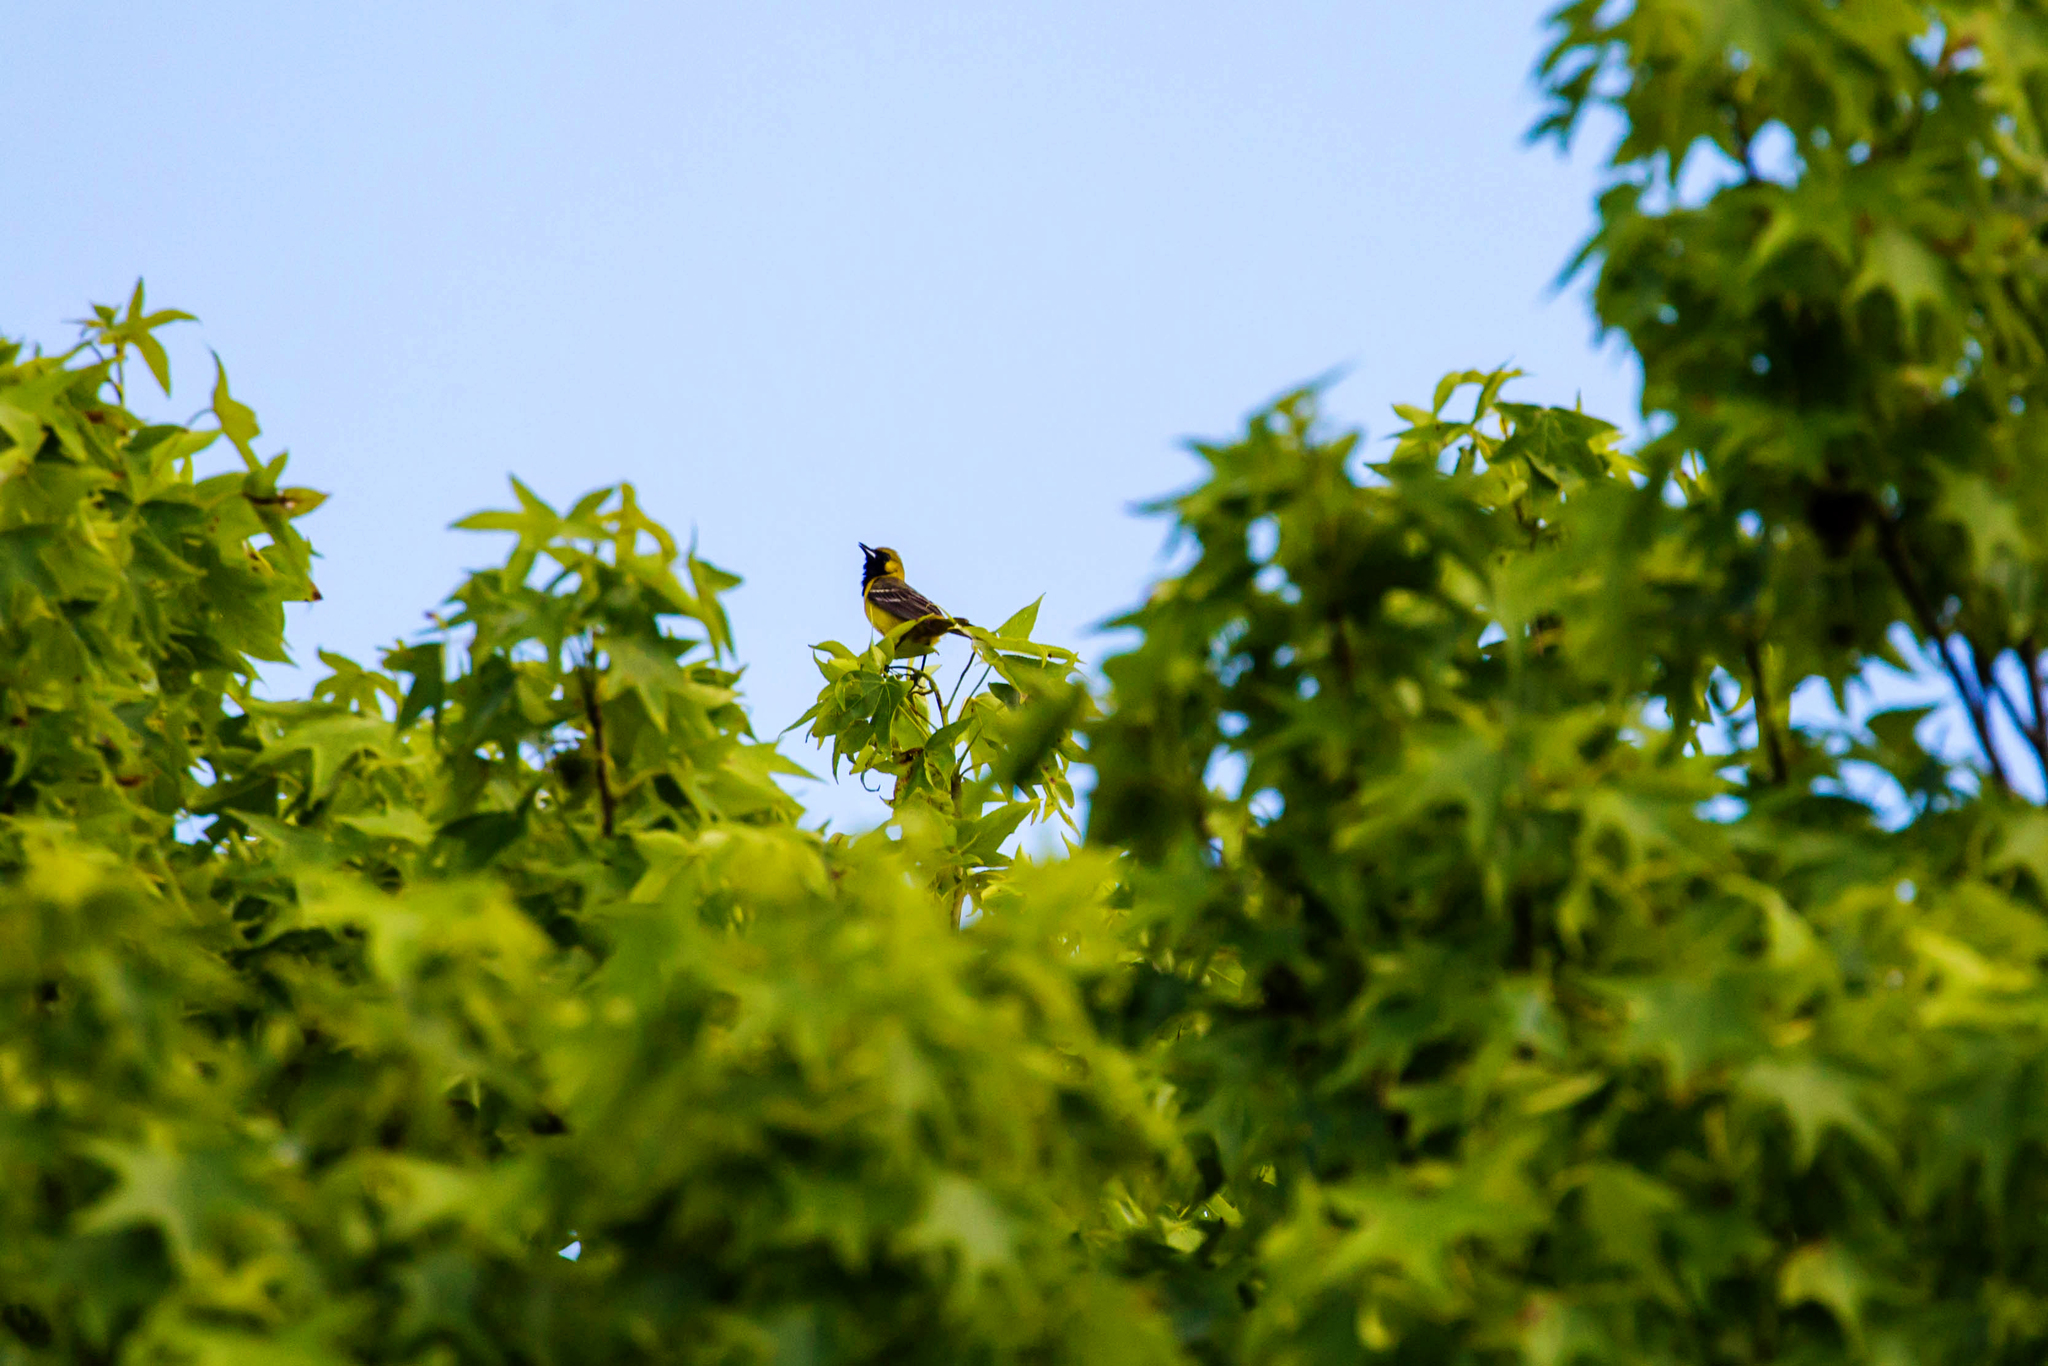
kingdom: Animalia
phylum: Chordata
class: Aves
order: Passeriformes
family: Icteridae
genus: Icterus
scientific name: Icterus spurius
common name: Orchard oriole
